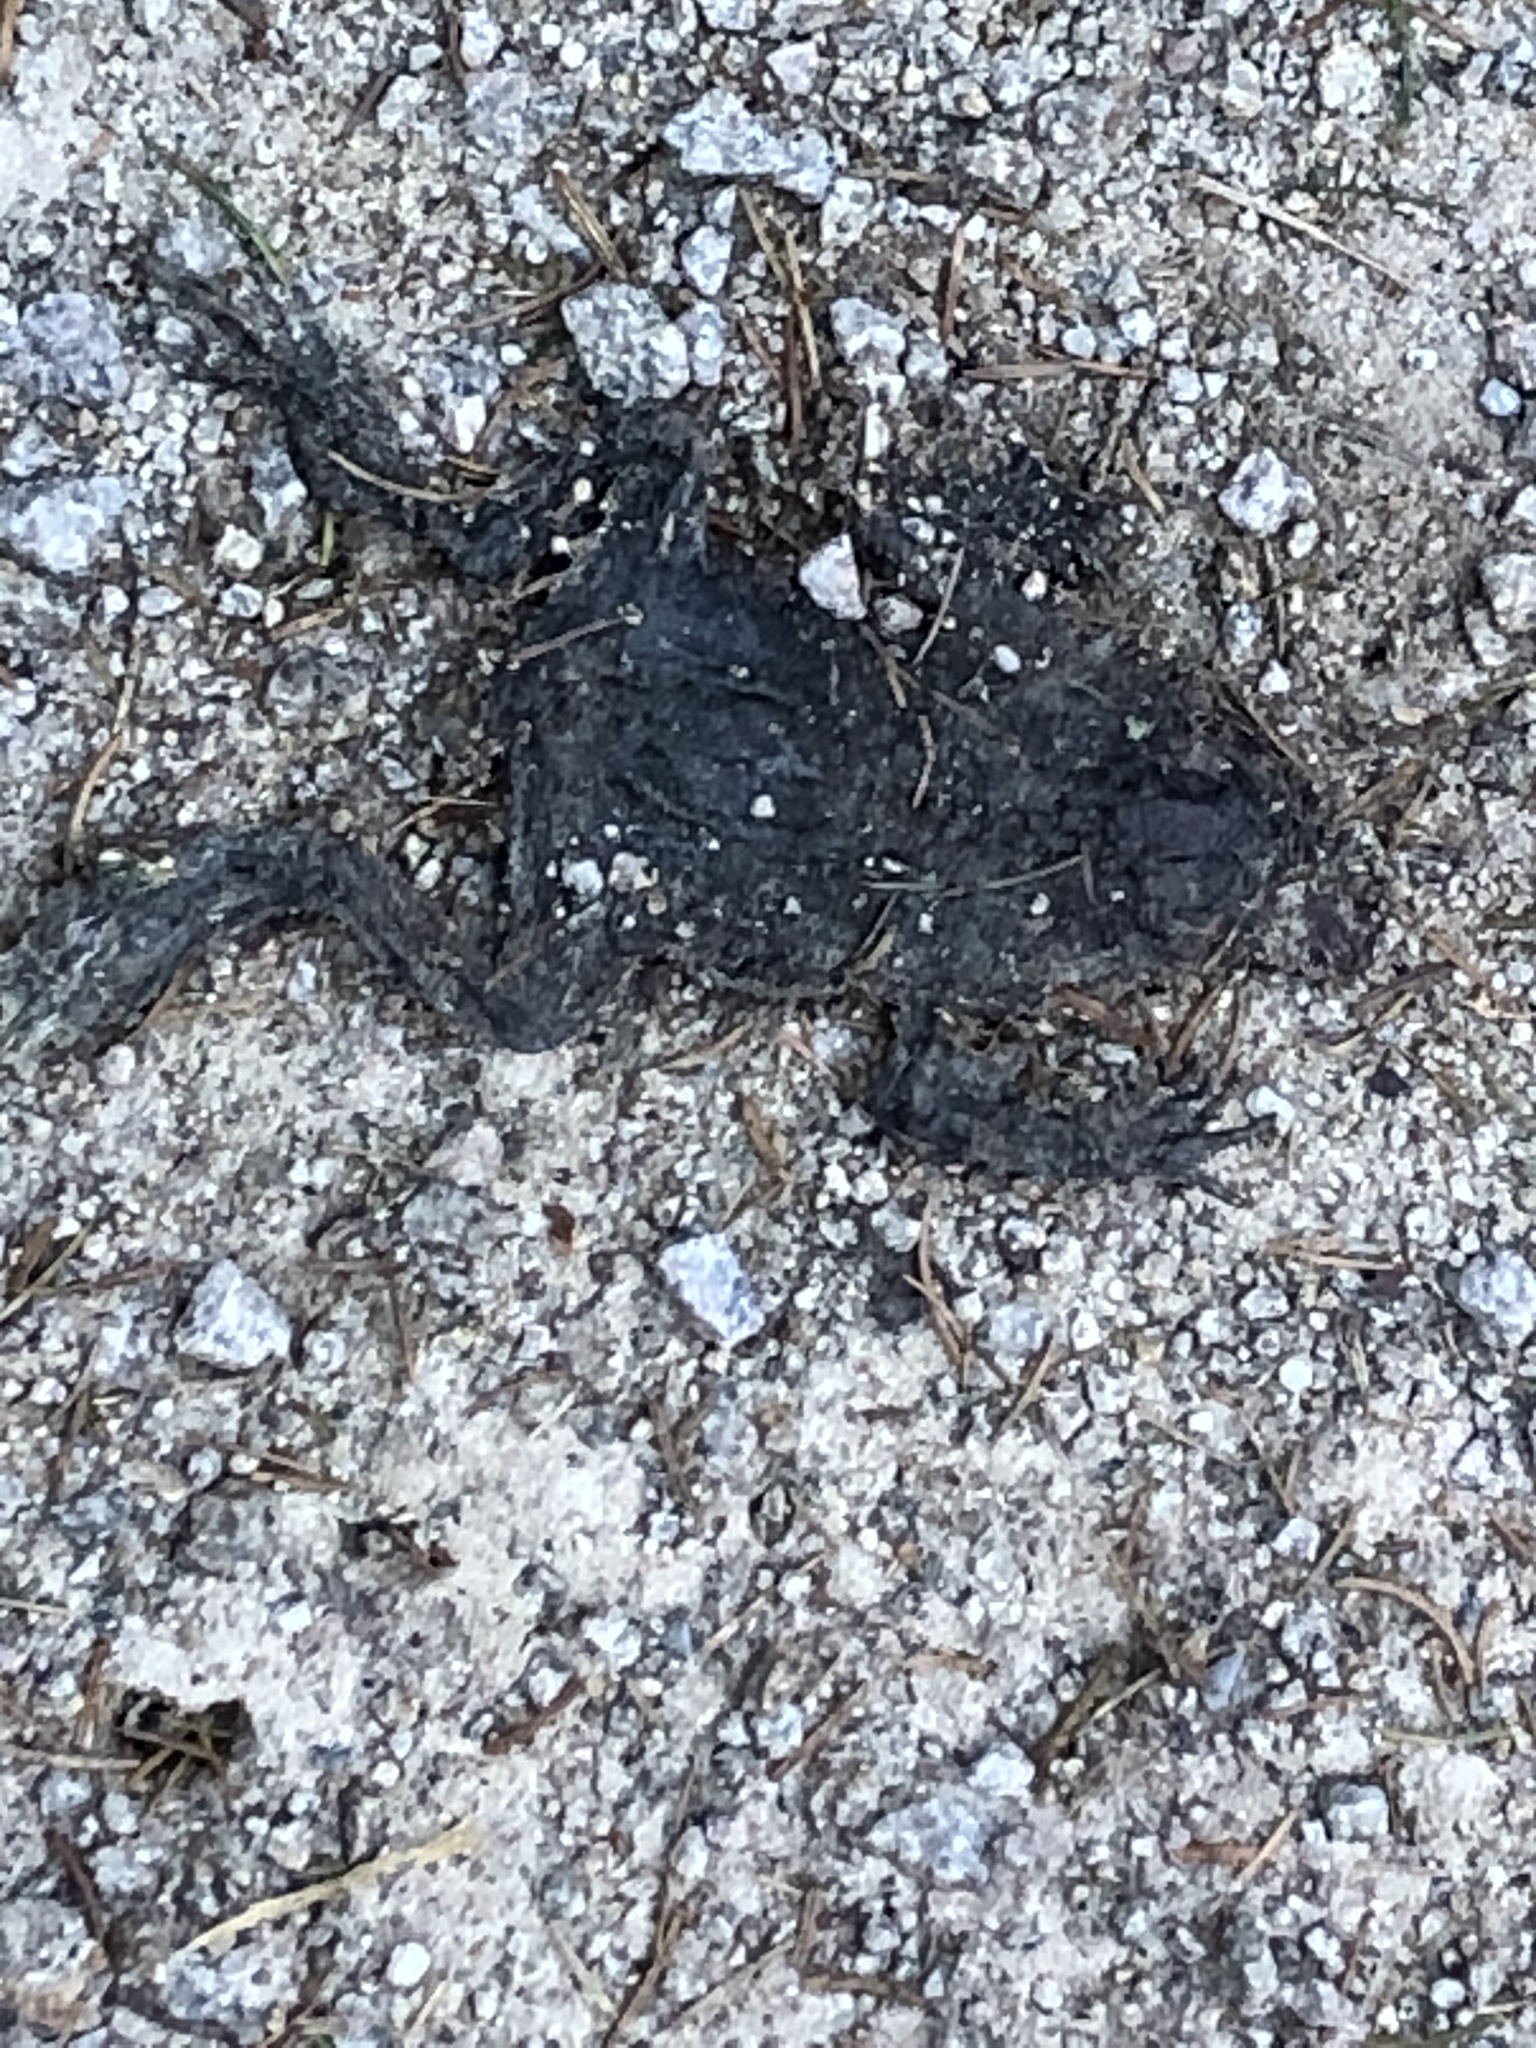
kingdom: Animalia
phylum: Chordata
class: Amphibia
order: Anura
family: Bufonidae
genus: Bufo
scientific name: Bufo bufo
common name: Common toad
